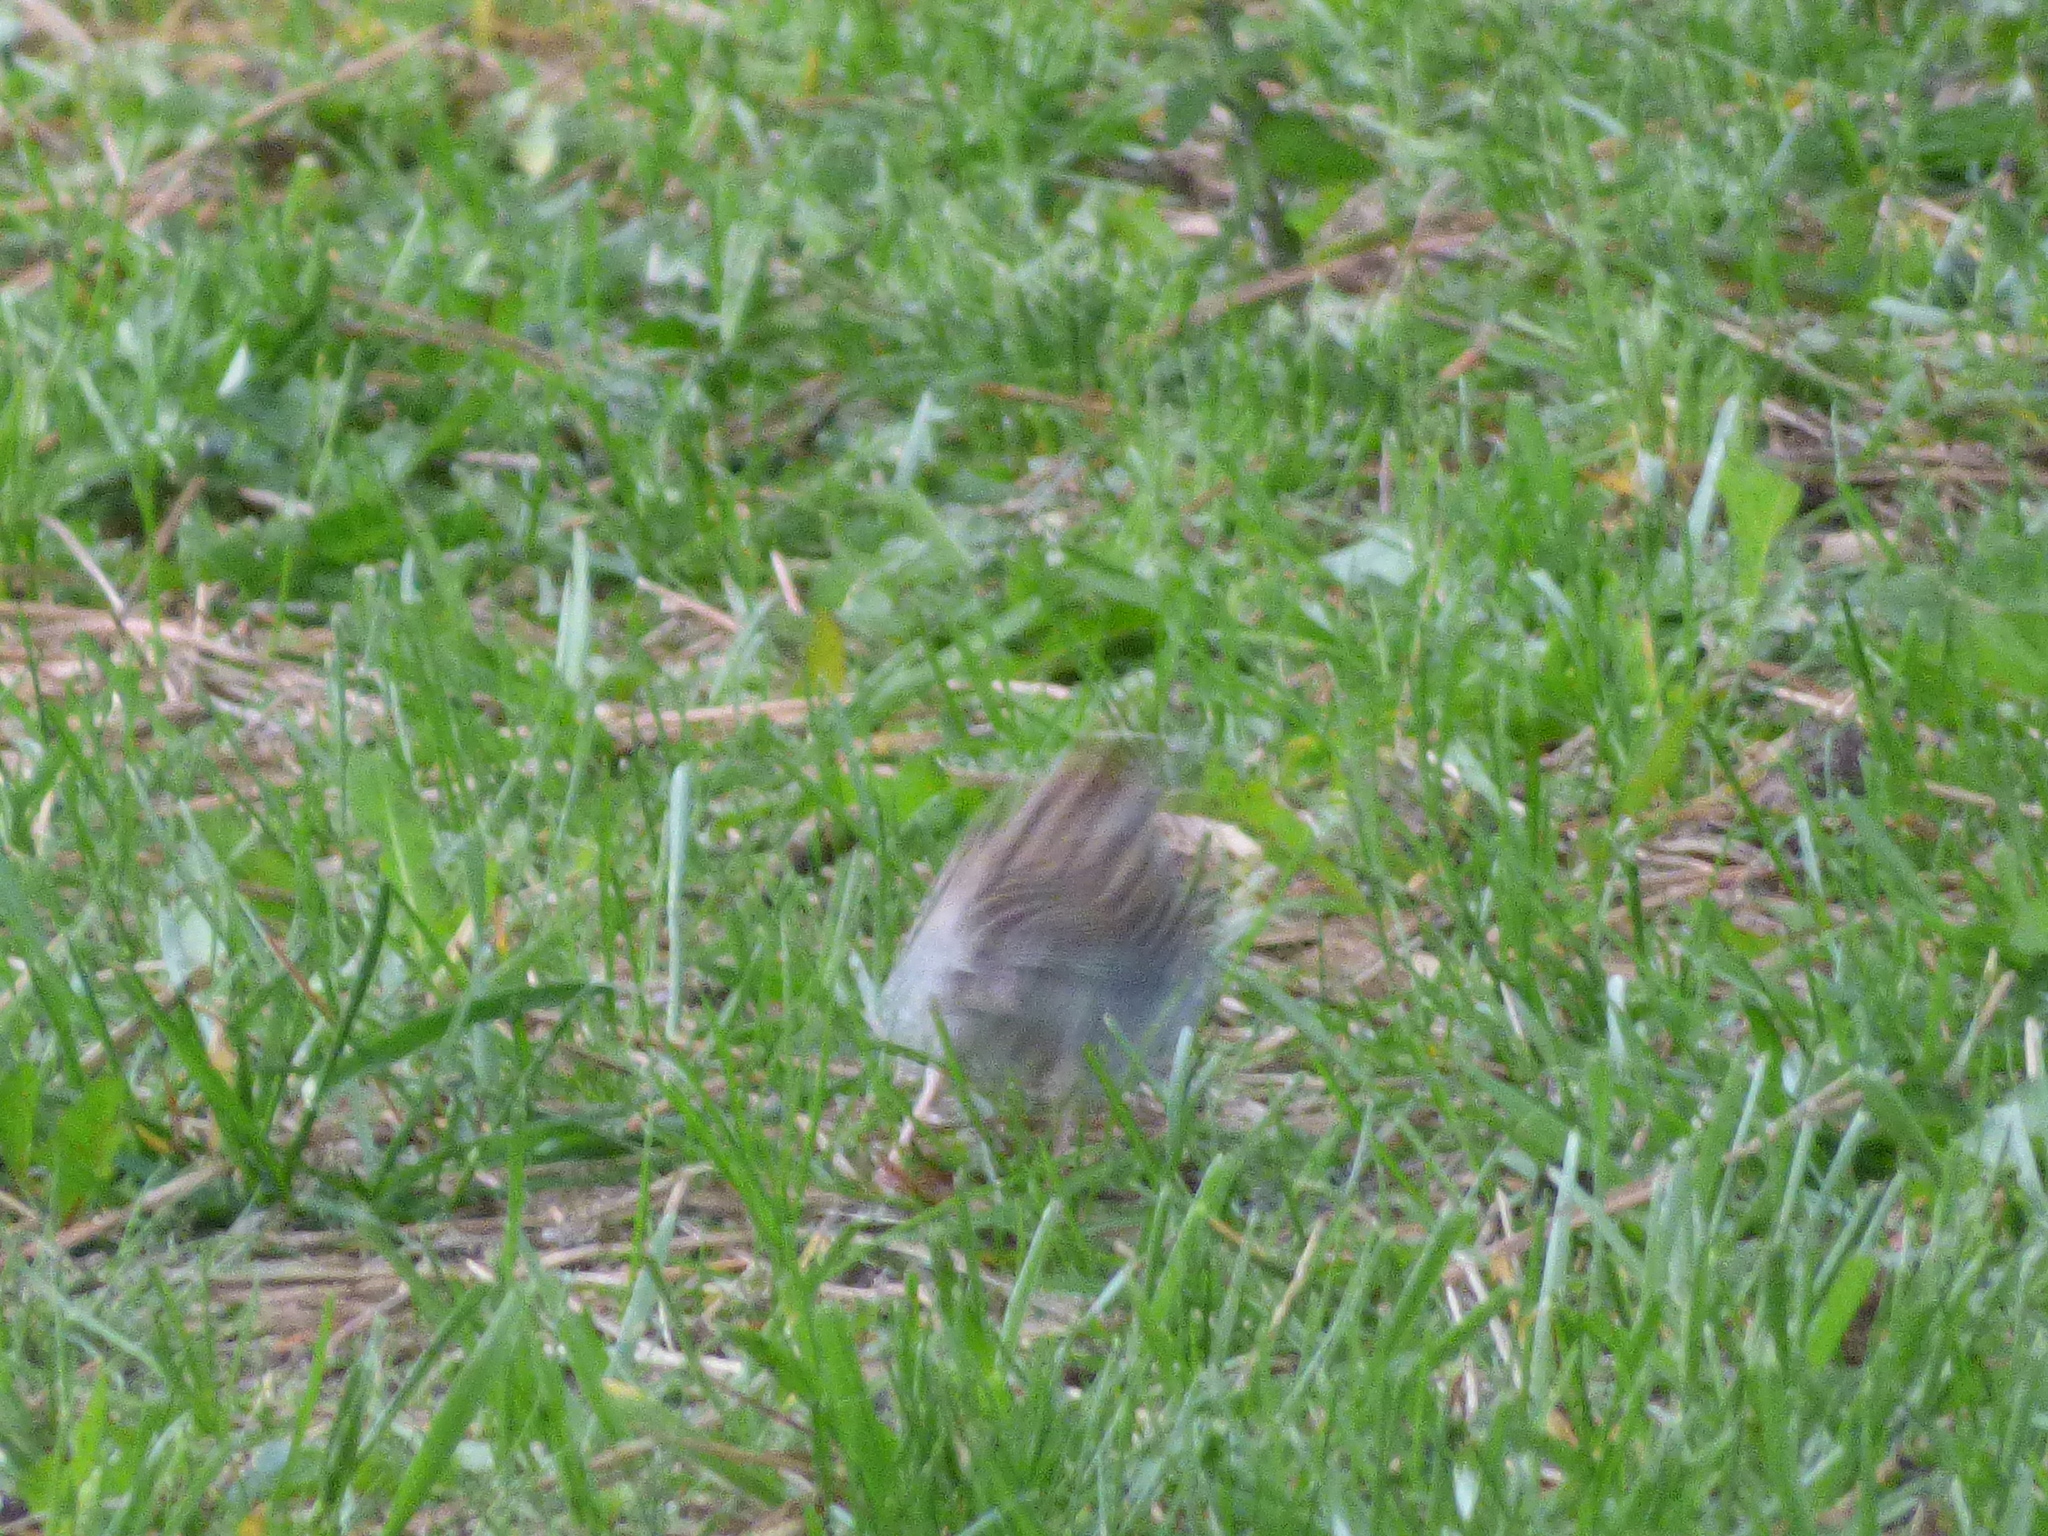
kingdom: Animalia
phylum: Chordata
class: Aves
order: Passeriformes
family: Passerellidae
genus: Spizella
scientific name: Spizella passerina
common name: Chipping sparrow
